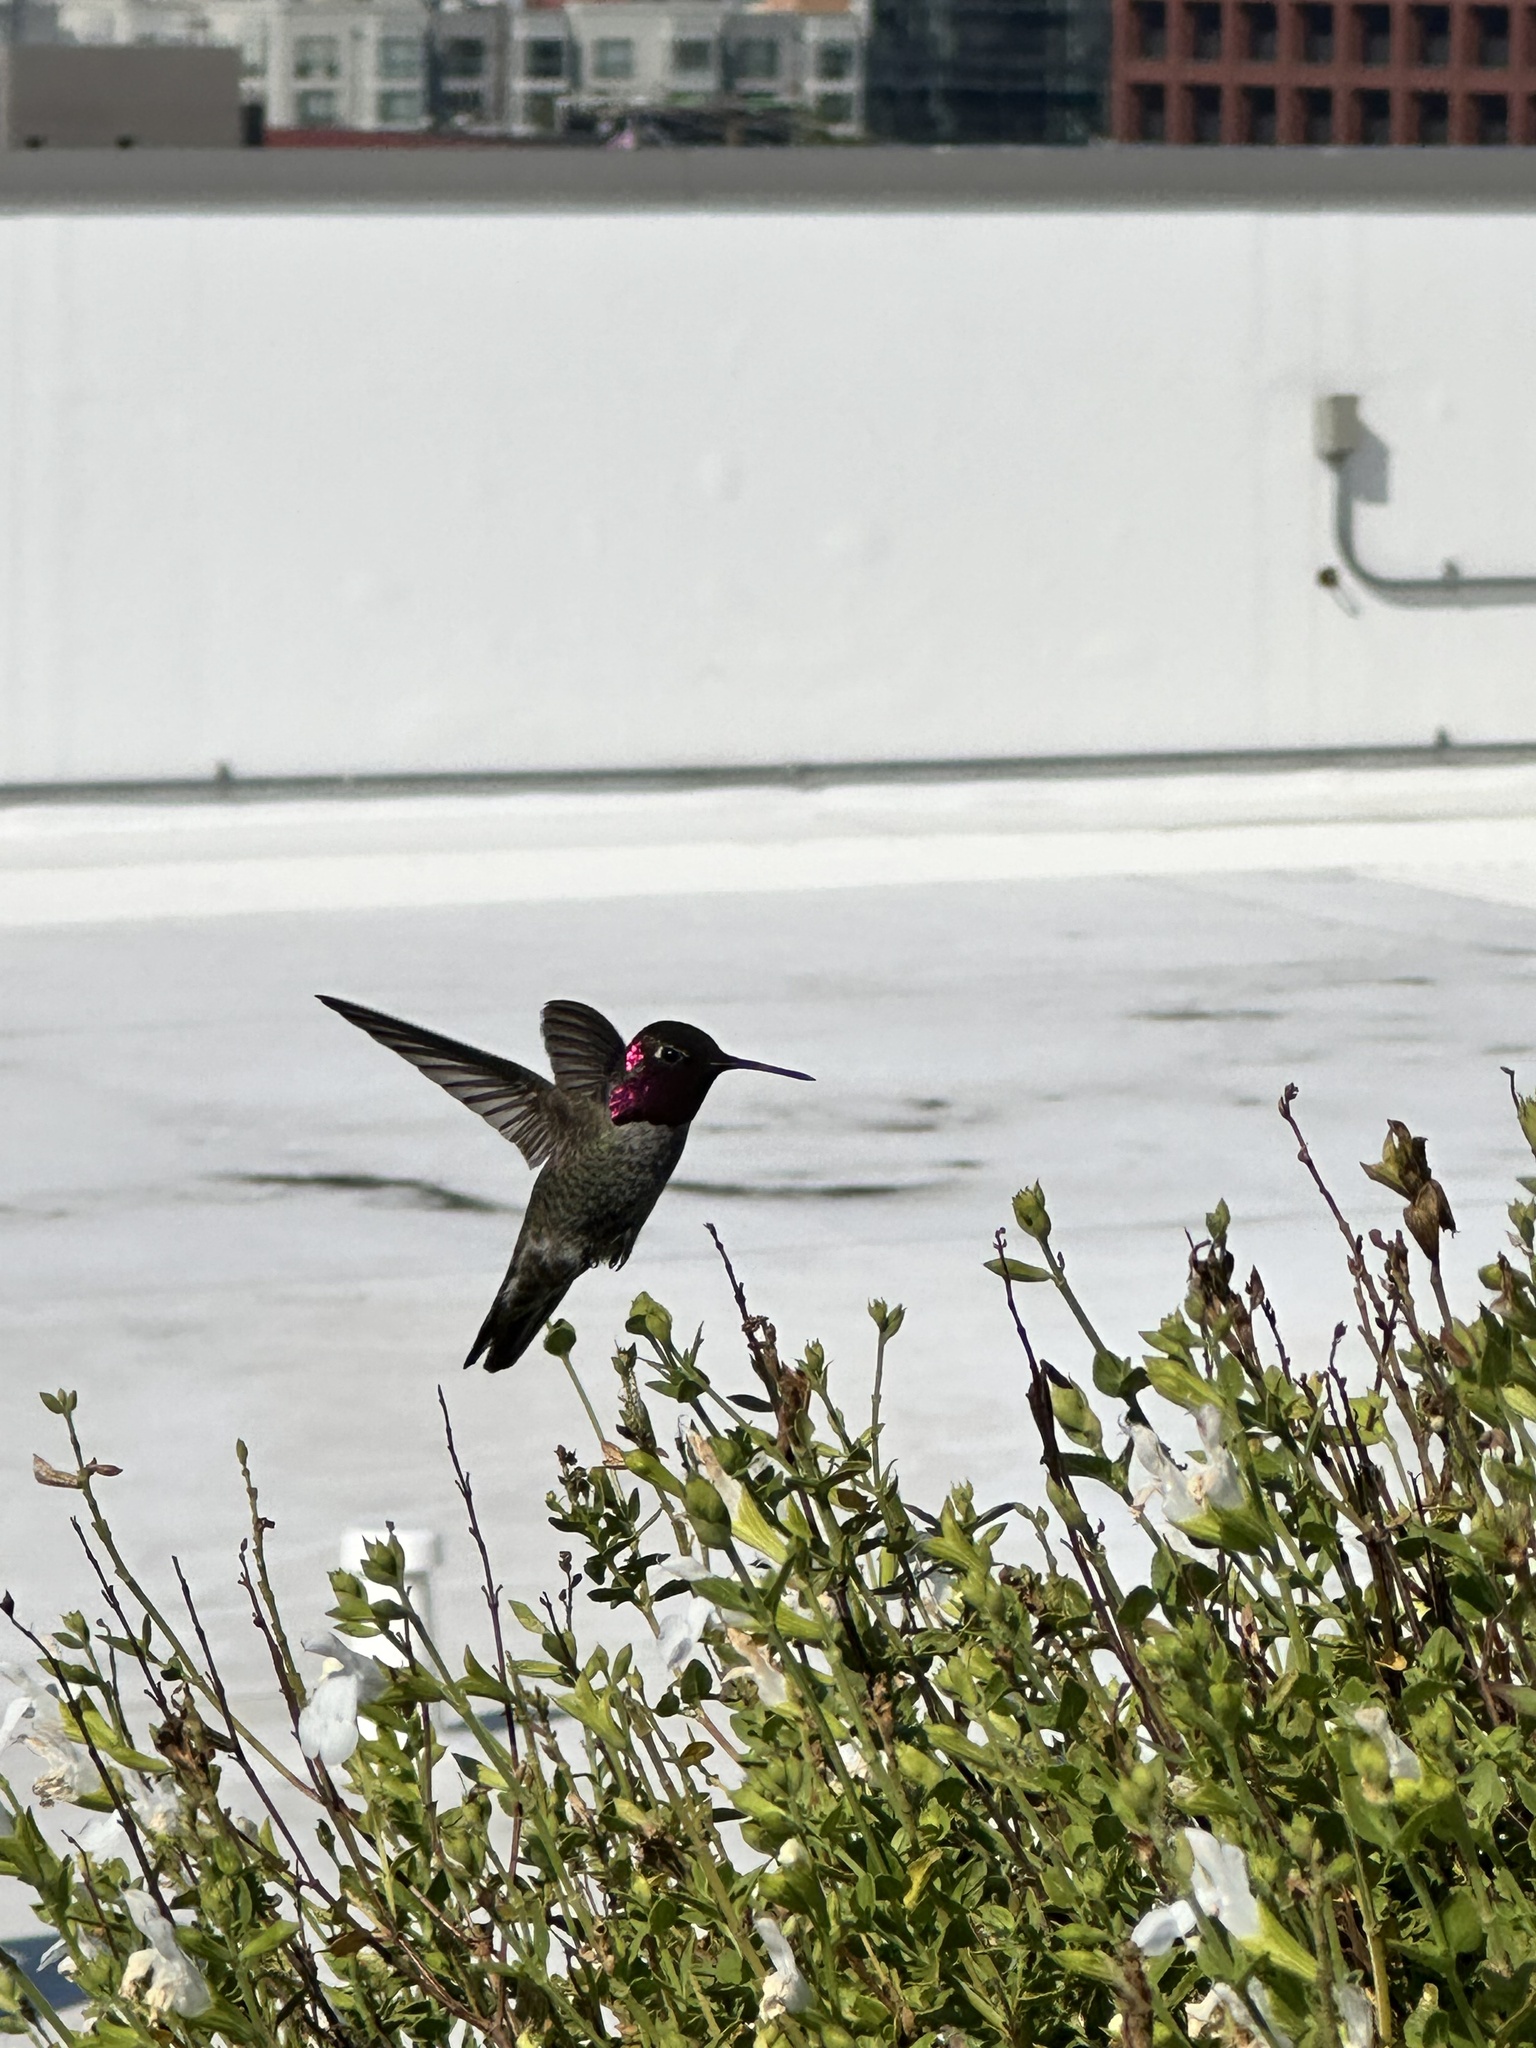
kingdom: Animalia
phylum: Chordata
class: Aves
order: Apodiformes
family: Trochilidae
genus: Calypte
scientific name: Calypte anna
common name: Anna's hummingbird
